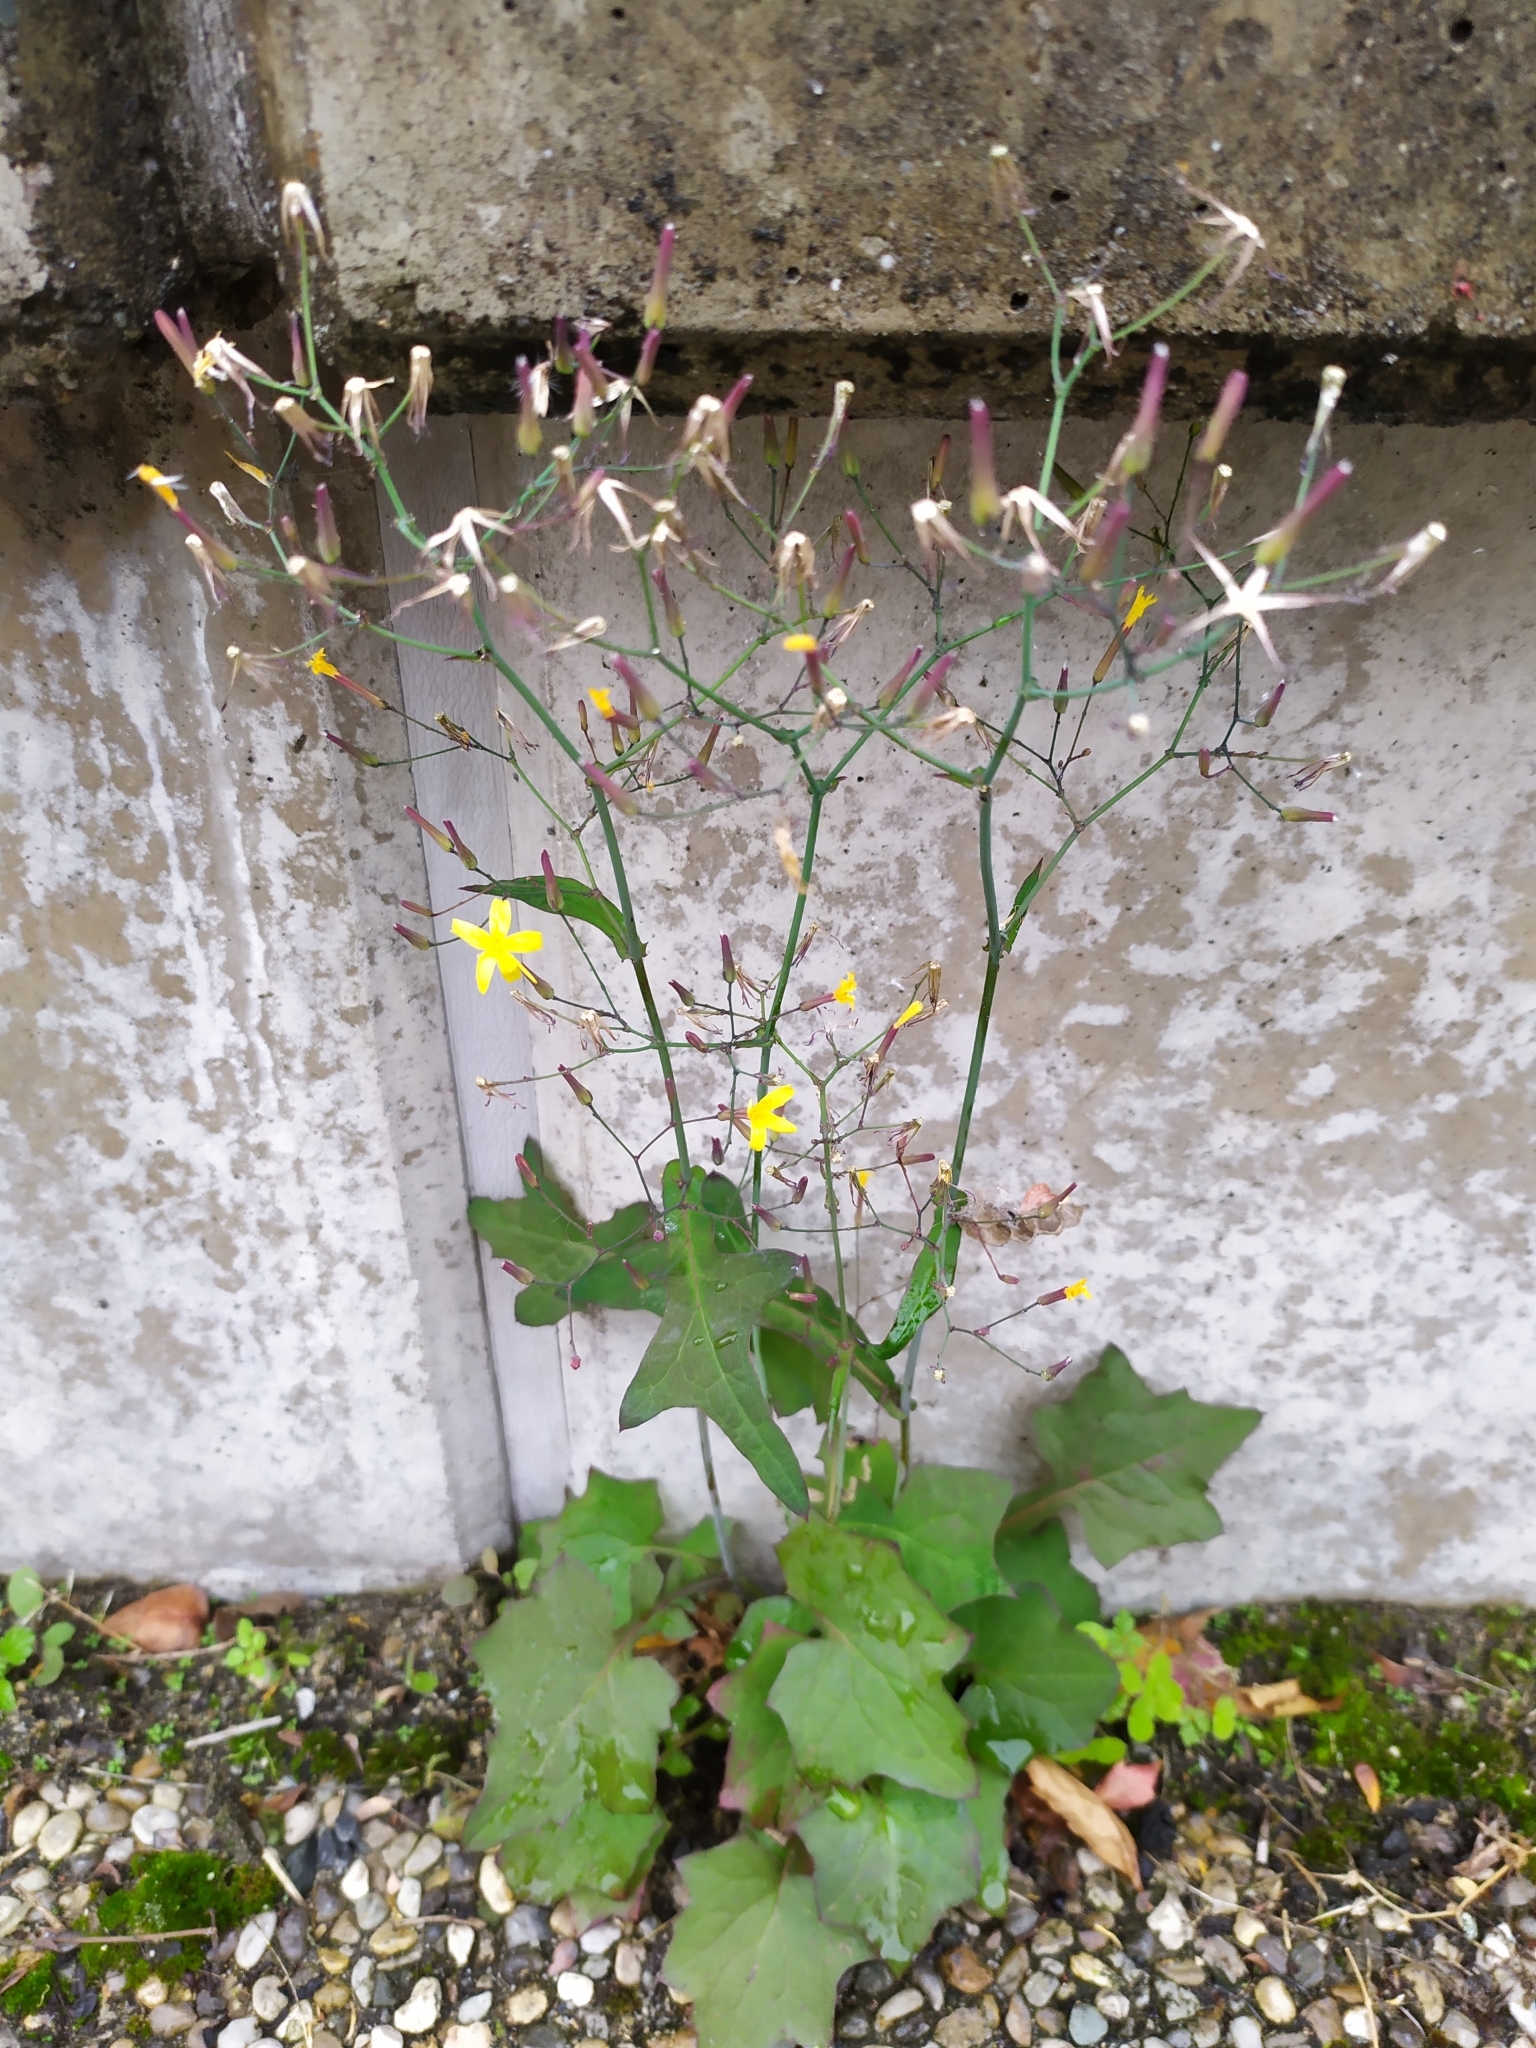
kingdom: Plantae
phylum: Tracheophyta
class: Magnoliopsida
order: Asterales
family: Asteraceae
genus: Mycelis
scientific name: Mycelis muralis
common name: Wall lettuce
